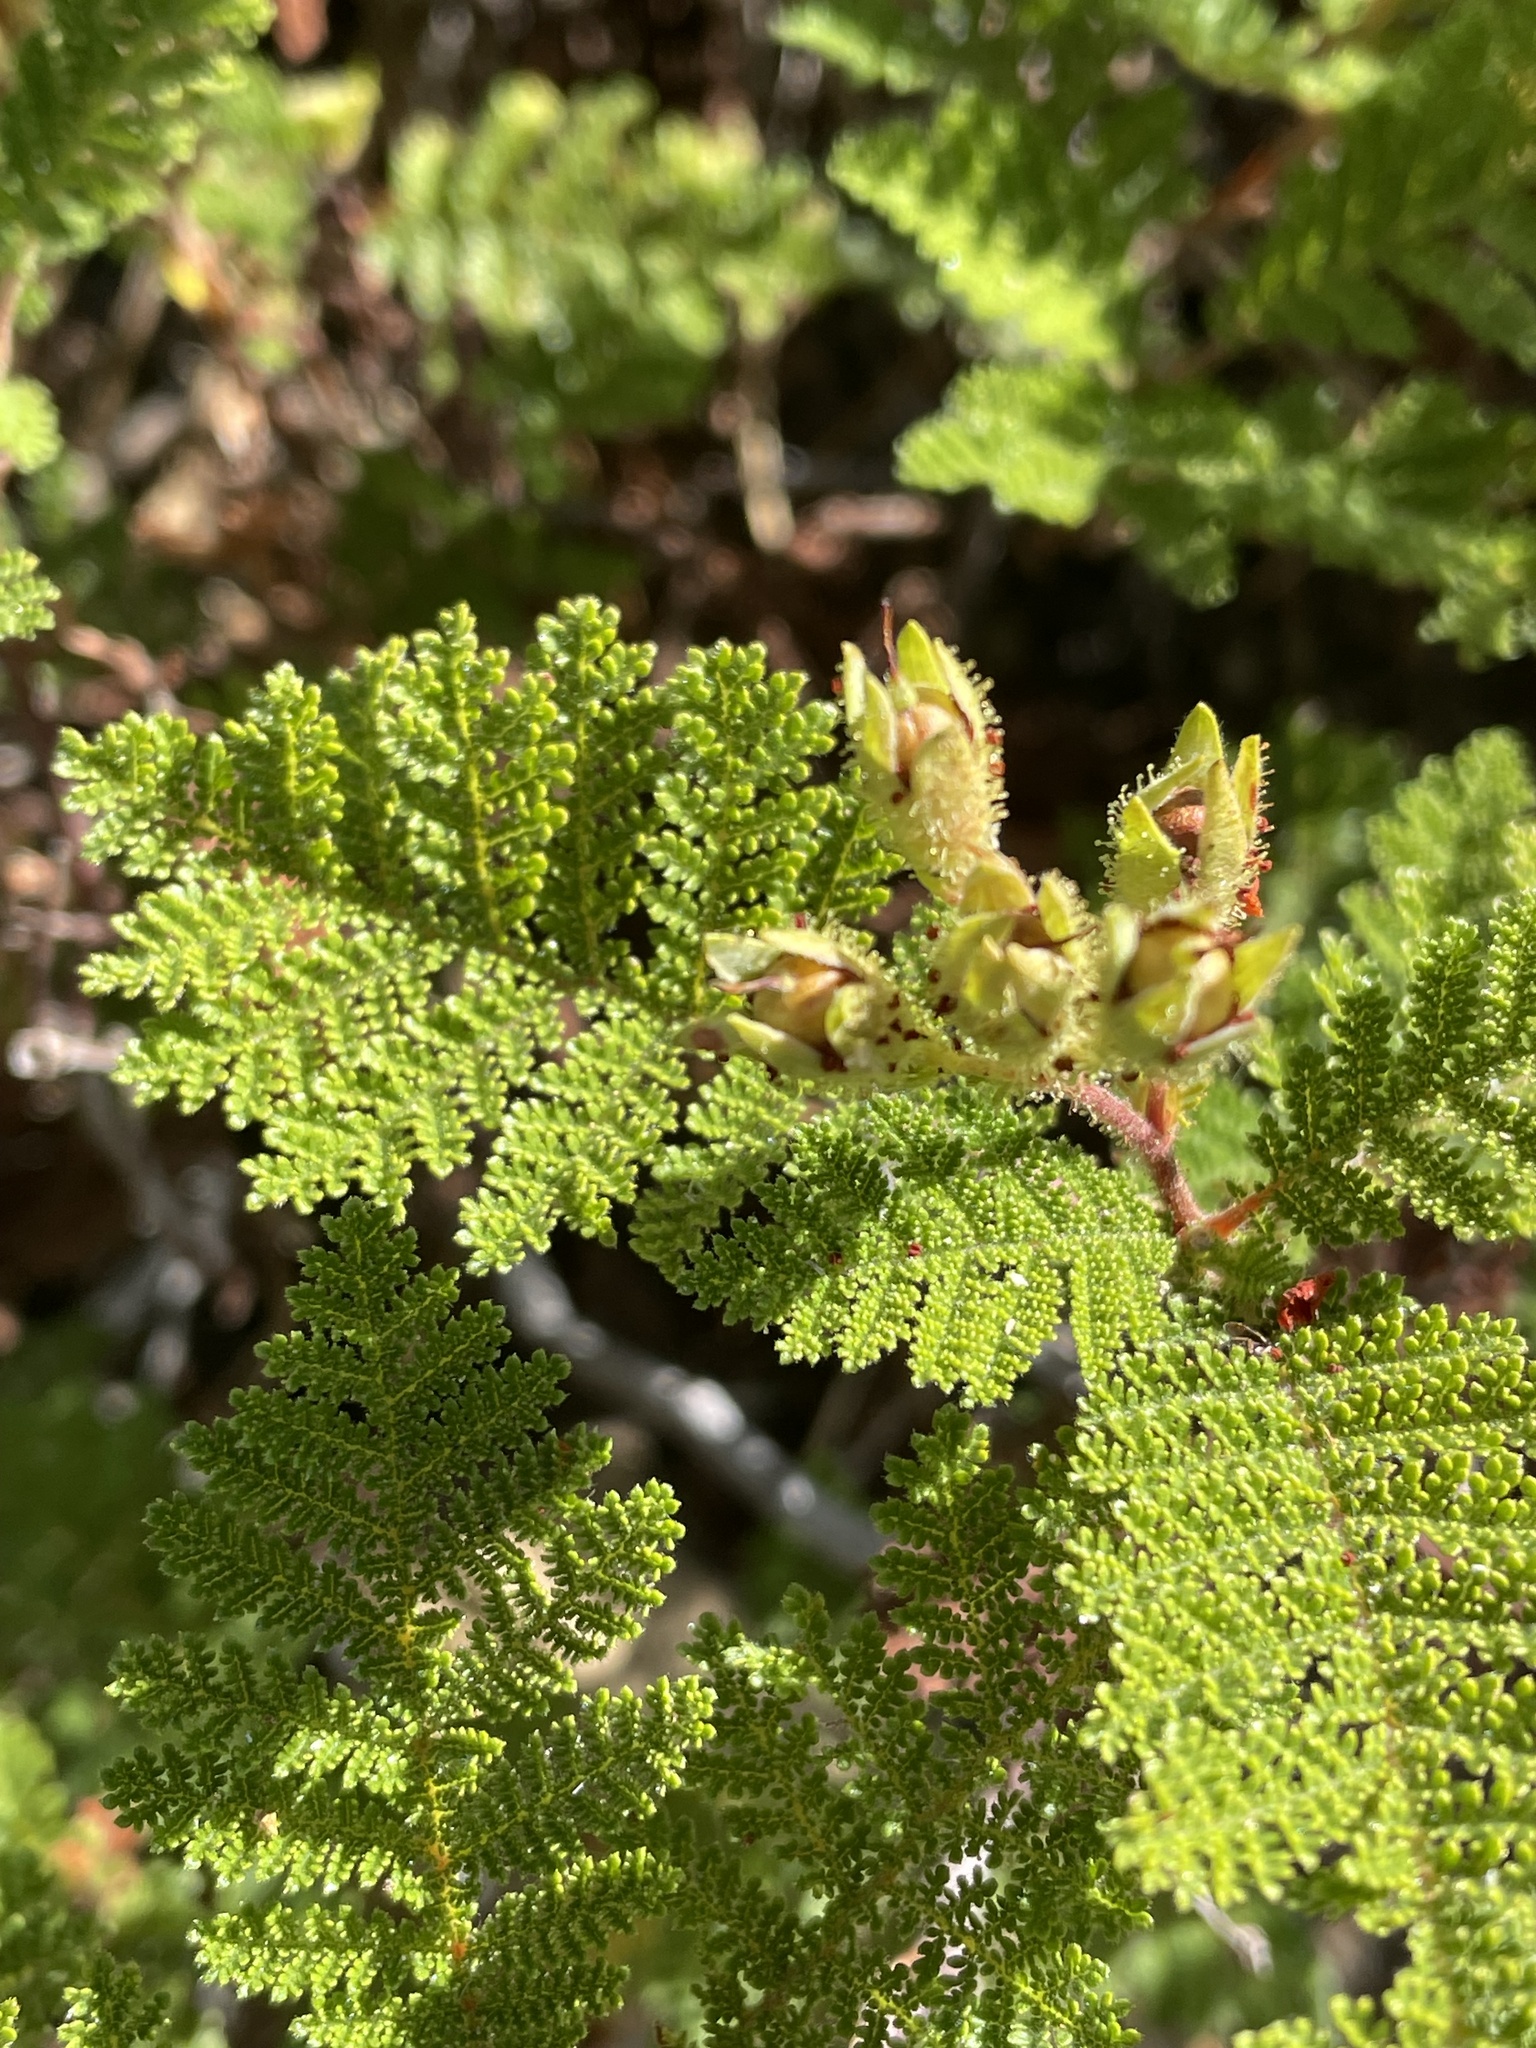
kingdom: Plantae
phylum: Tracheophyta
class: Magnoliopsida
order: Rosales
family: Rosaceae
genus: Chamaebatia
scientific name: Chamaebatia foliolosa
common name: Mountain misery
